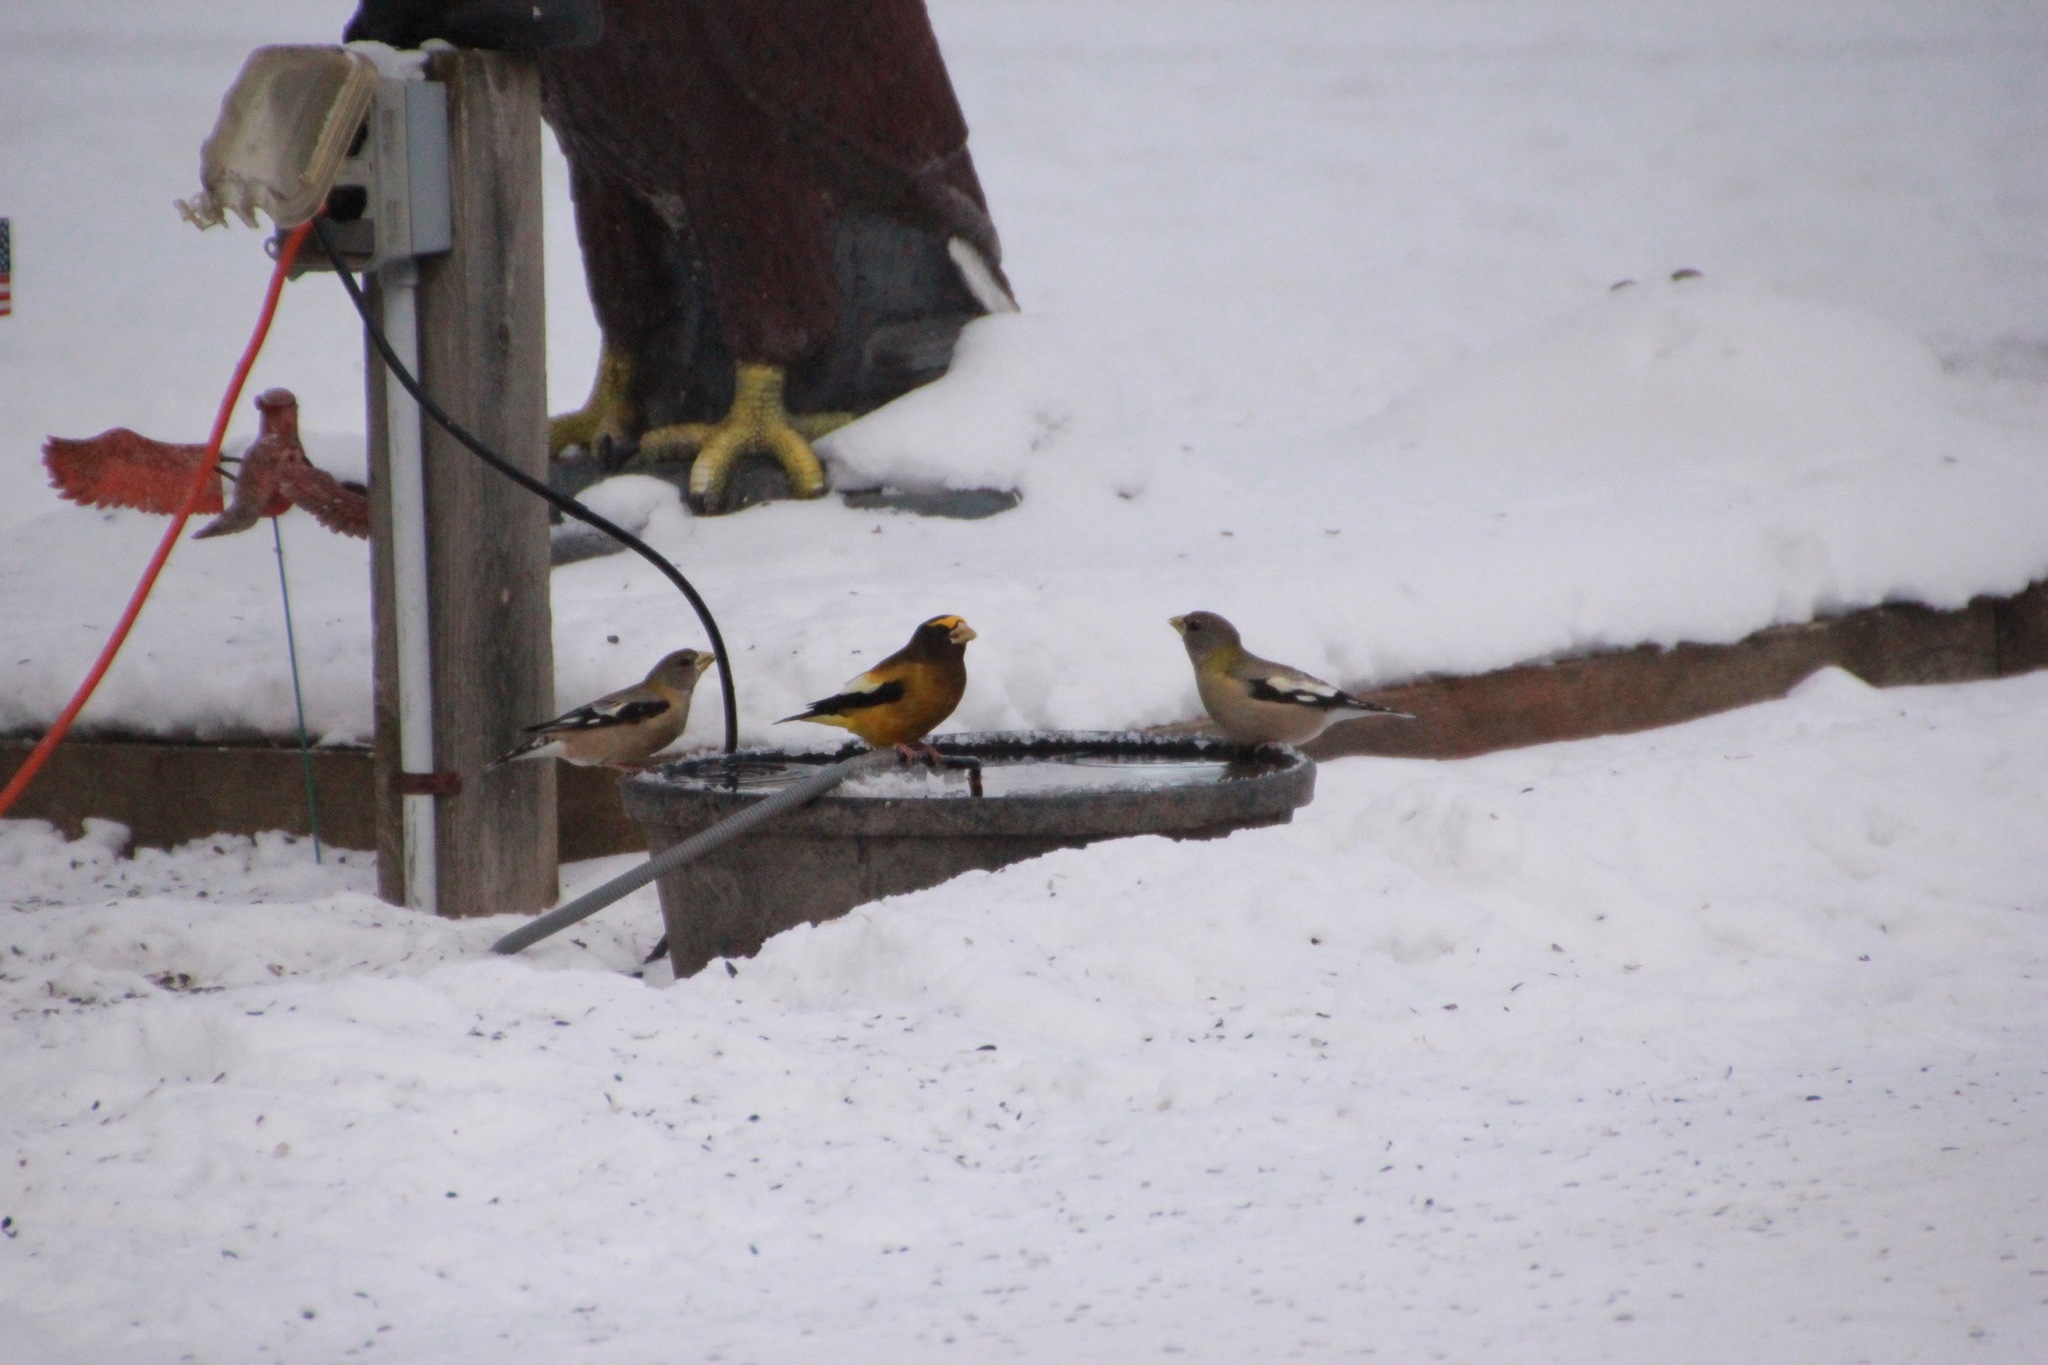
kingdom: Animalia
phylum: Chordata
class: Aves
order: Passeriformes
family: Fringillidae
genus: Hesperiphona
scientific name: Hesperiphona vespertina
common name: Evening grosbeak
